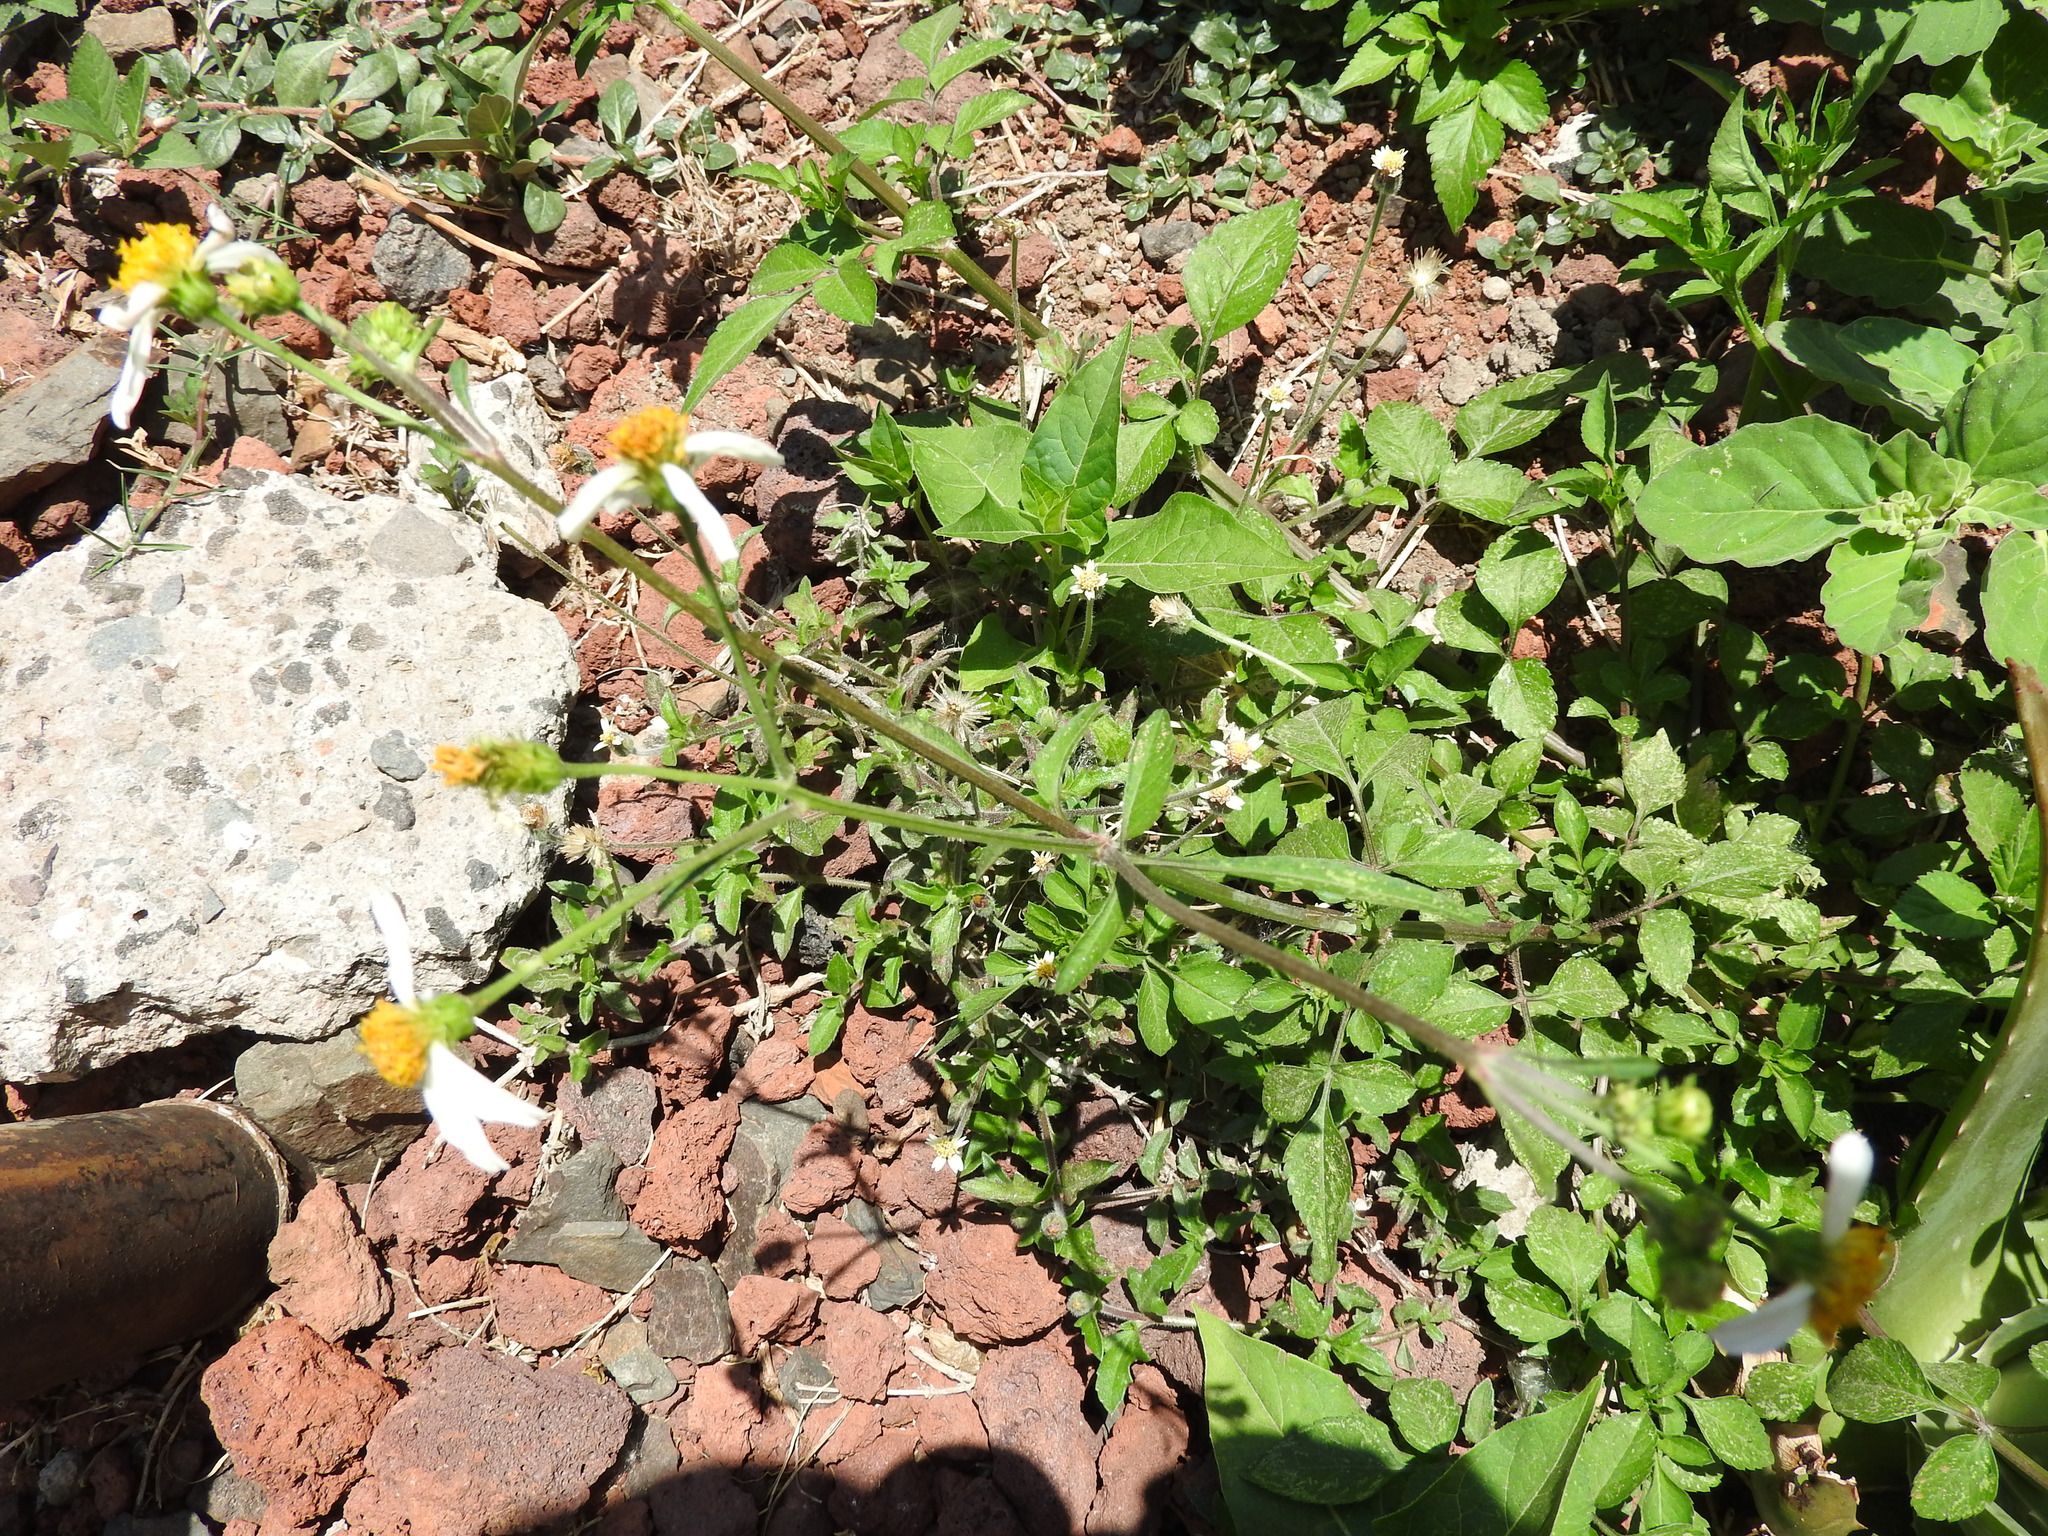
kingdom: Plantae
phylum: Tracheophyta
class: Magnoliopsida
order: Asterales
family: Asteraceae
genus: Bidens
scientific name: Bidens odorata
